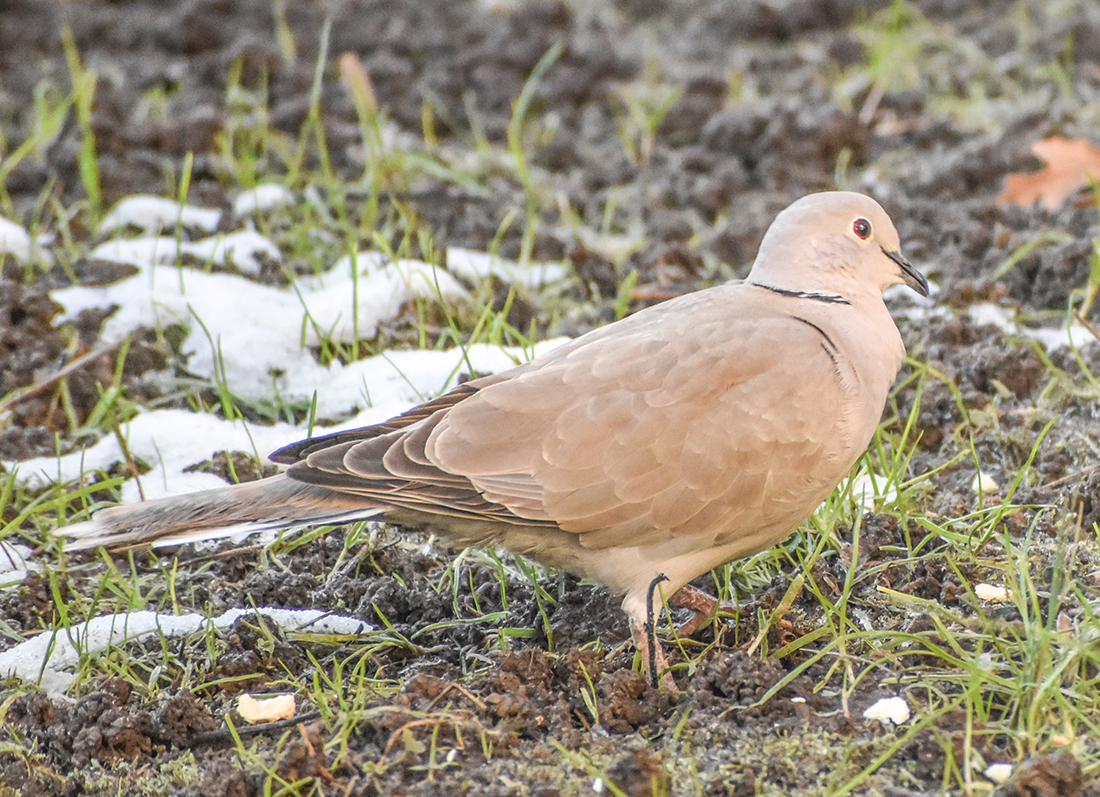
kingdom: Animalia
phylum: Chordata
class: Aves
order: Columbiformes
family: Columbidae
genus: Streptopelia
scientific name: Streptopelia decaocto
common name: Eurasian collared dove
